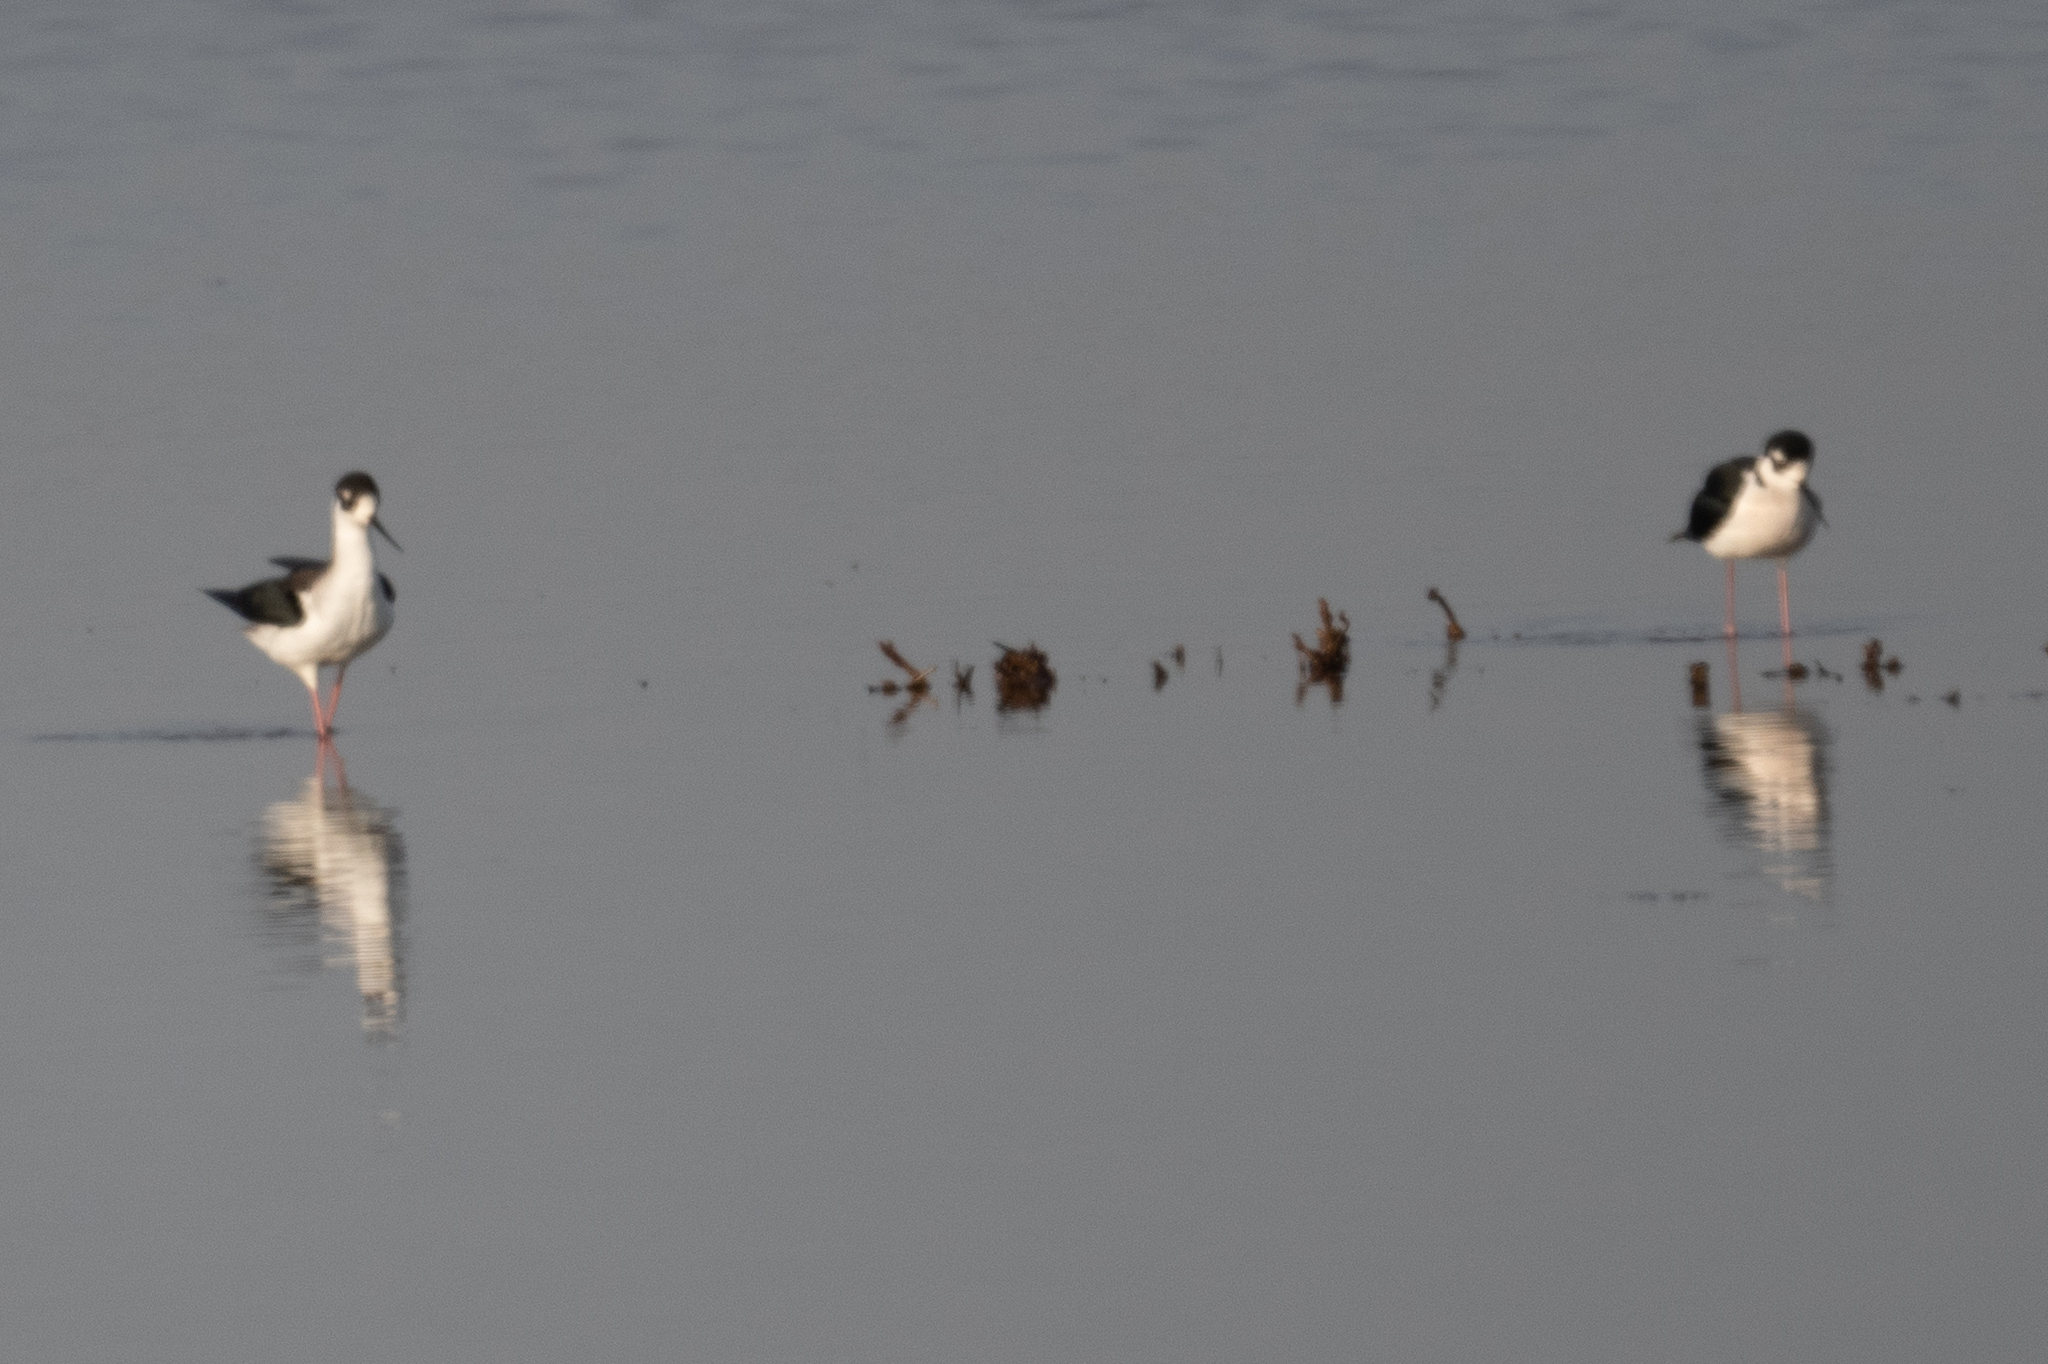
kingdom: Animalia
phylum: Chordata
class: Aves
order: Charadriiformes
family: Recurvirostridae
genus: Himantopus
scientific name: Himantopus mexicanus
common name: Black-necked stilt
